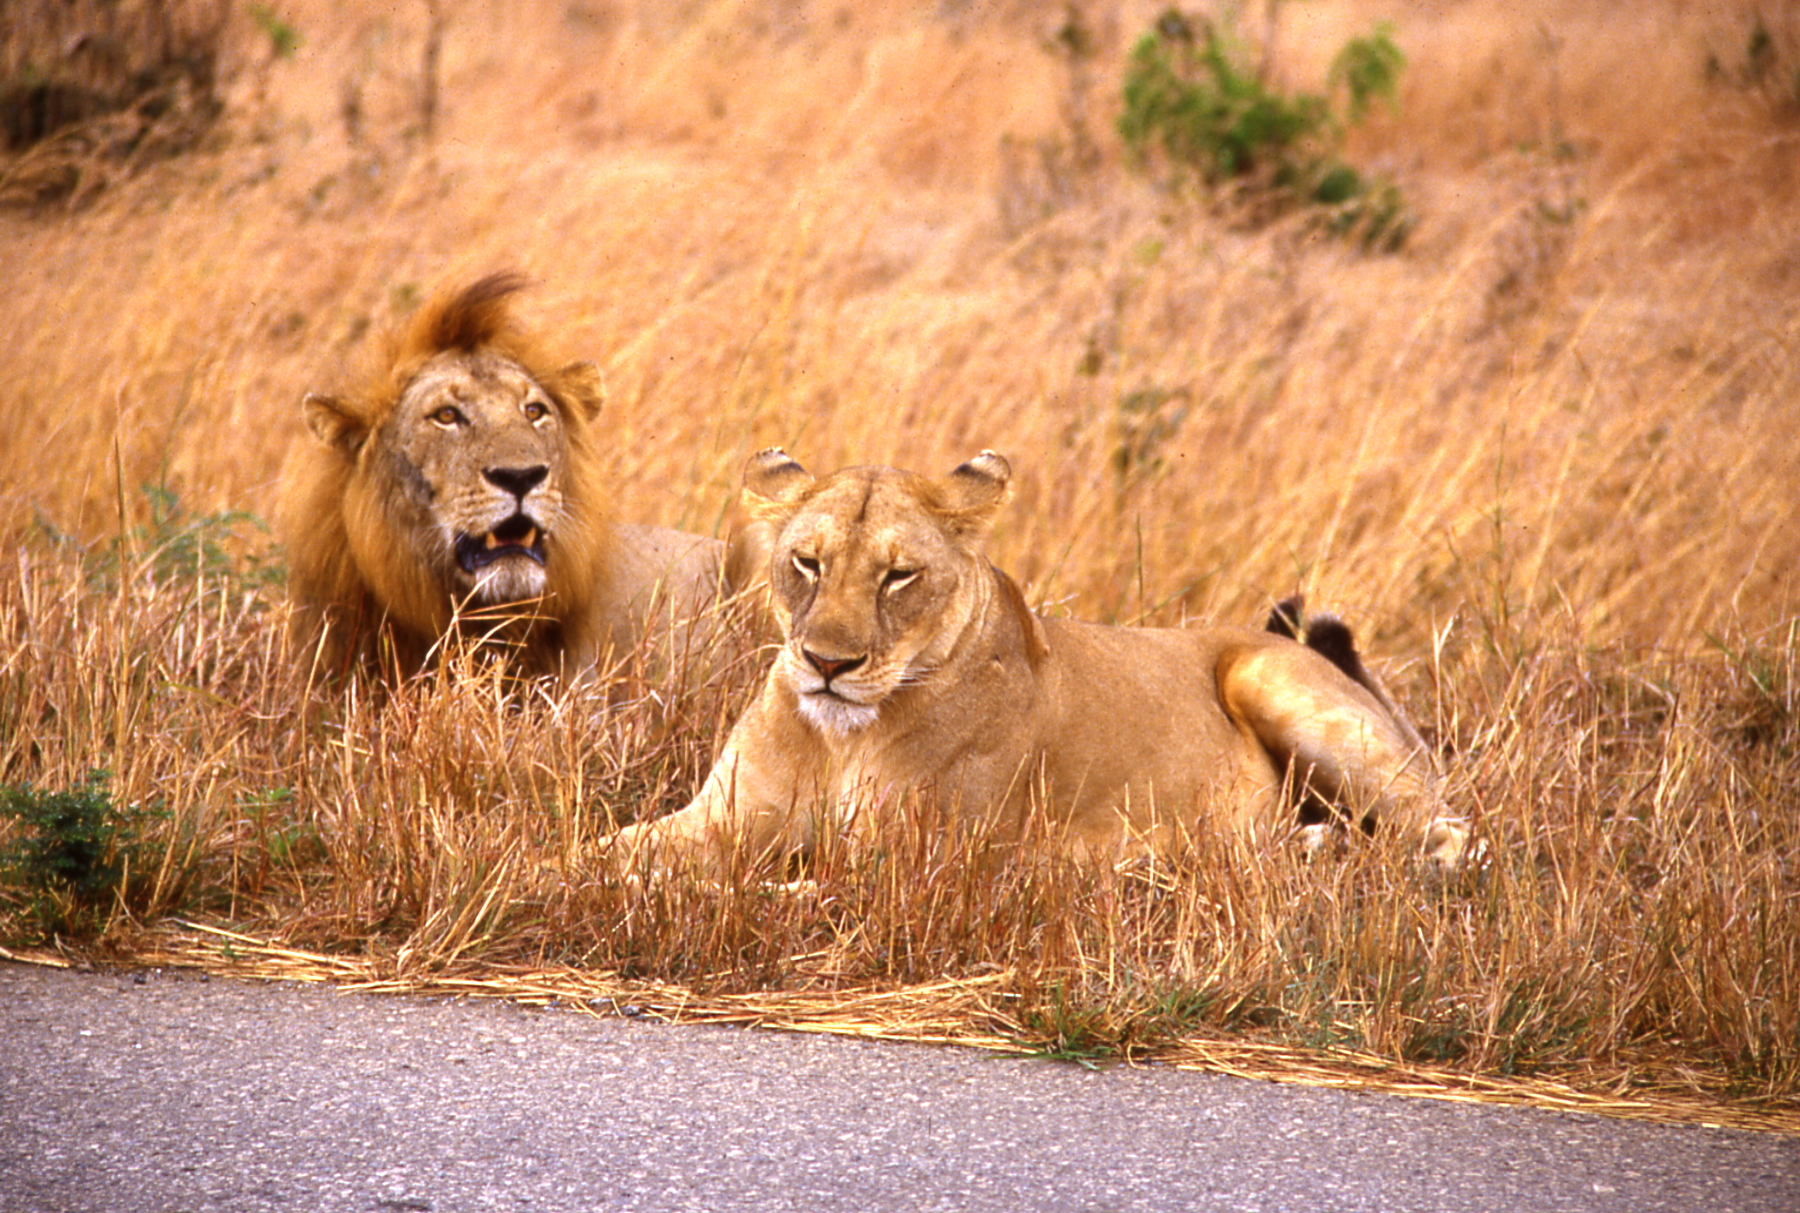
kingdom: Animalia
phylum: Chordata
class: Mammalia
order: Carnivora
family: Felidae
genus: Panthera
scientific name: Panthera leo
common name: Lion
